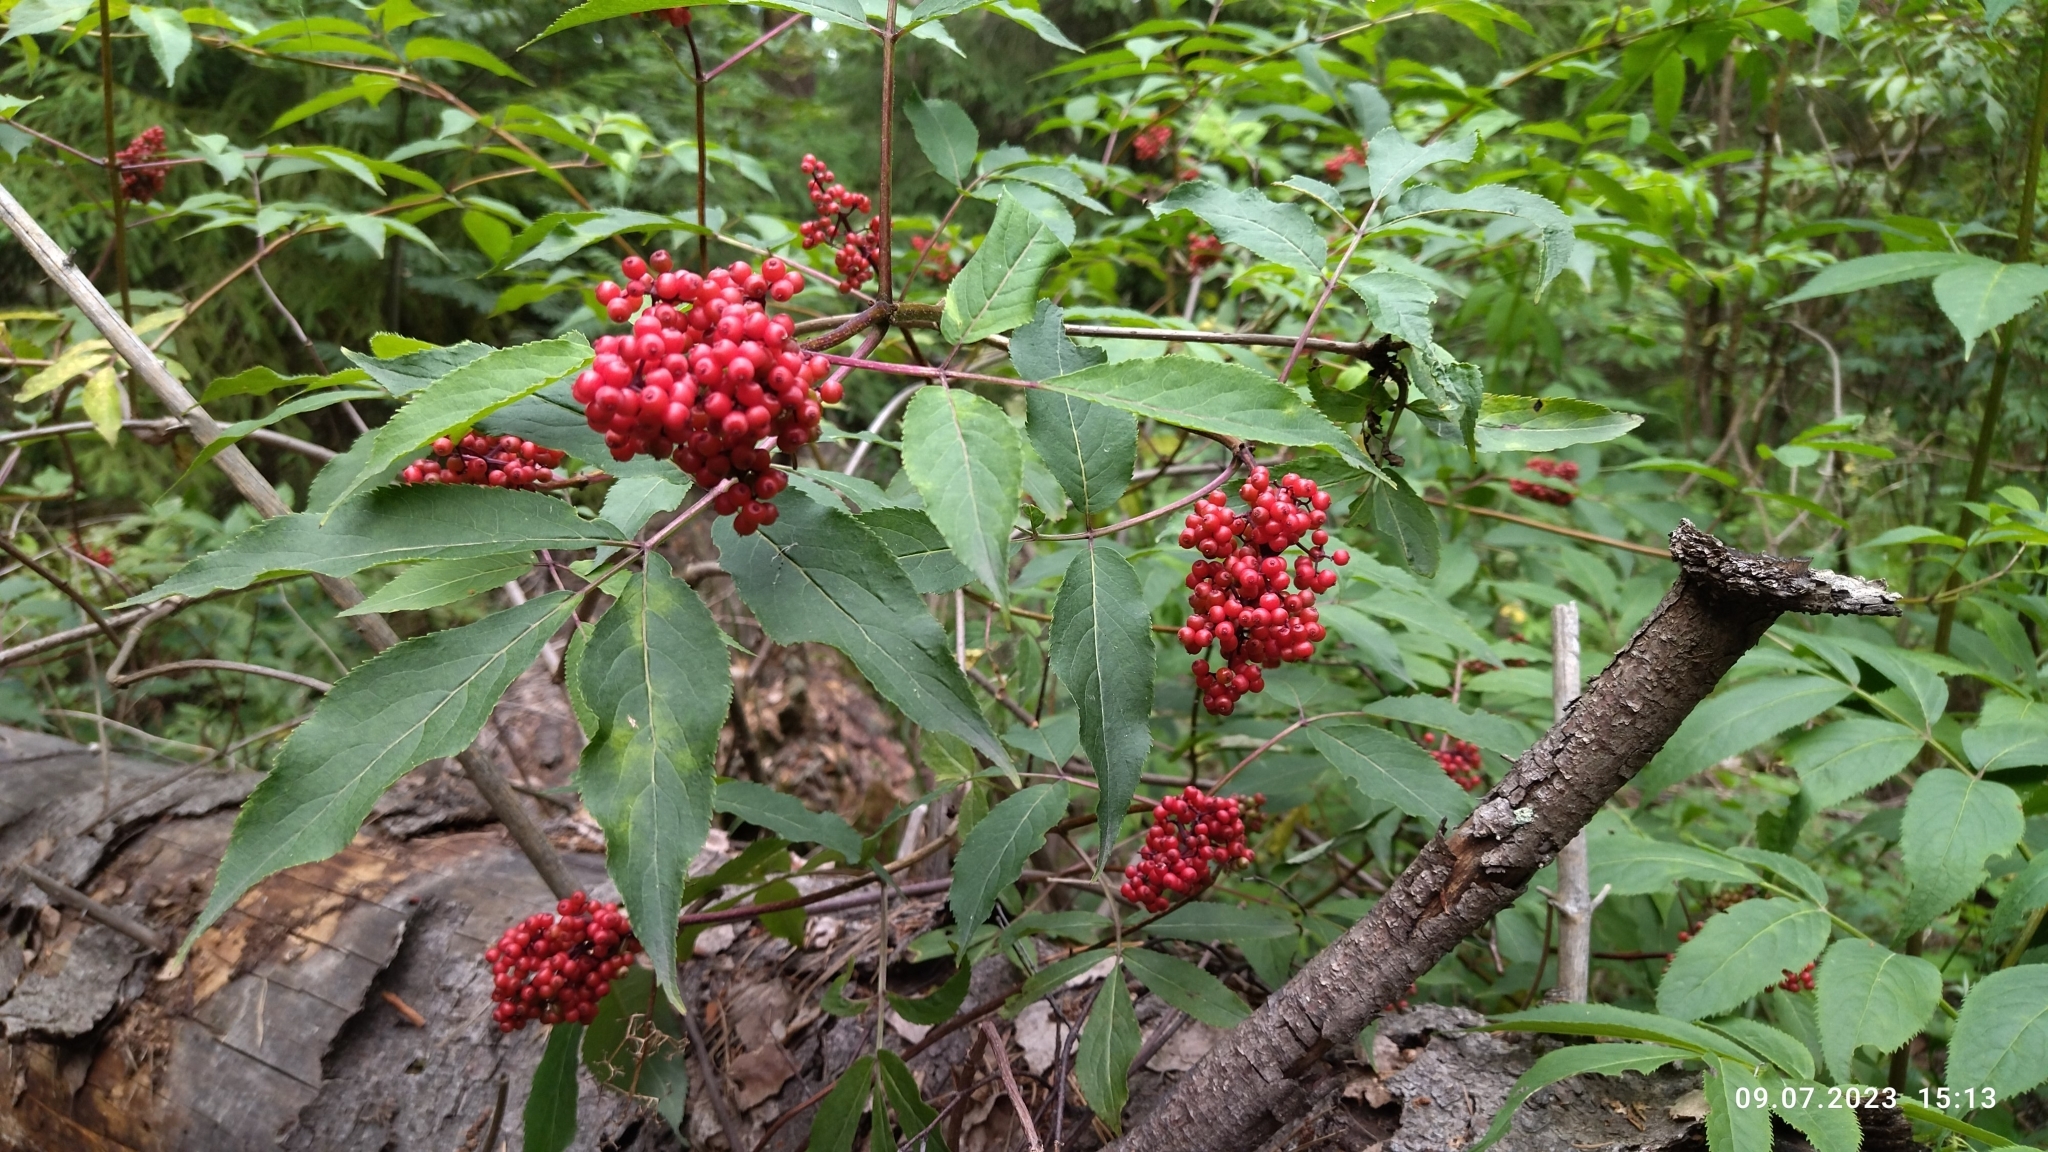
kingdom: Plantae
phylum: Tracheophyta
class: Magnoliopsida
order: Dipsacales
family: Viburnaceae
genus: Sambucus
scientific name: Sambucus racemosa
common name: Red-berried elder
